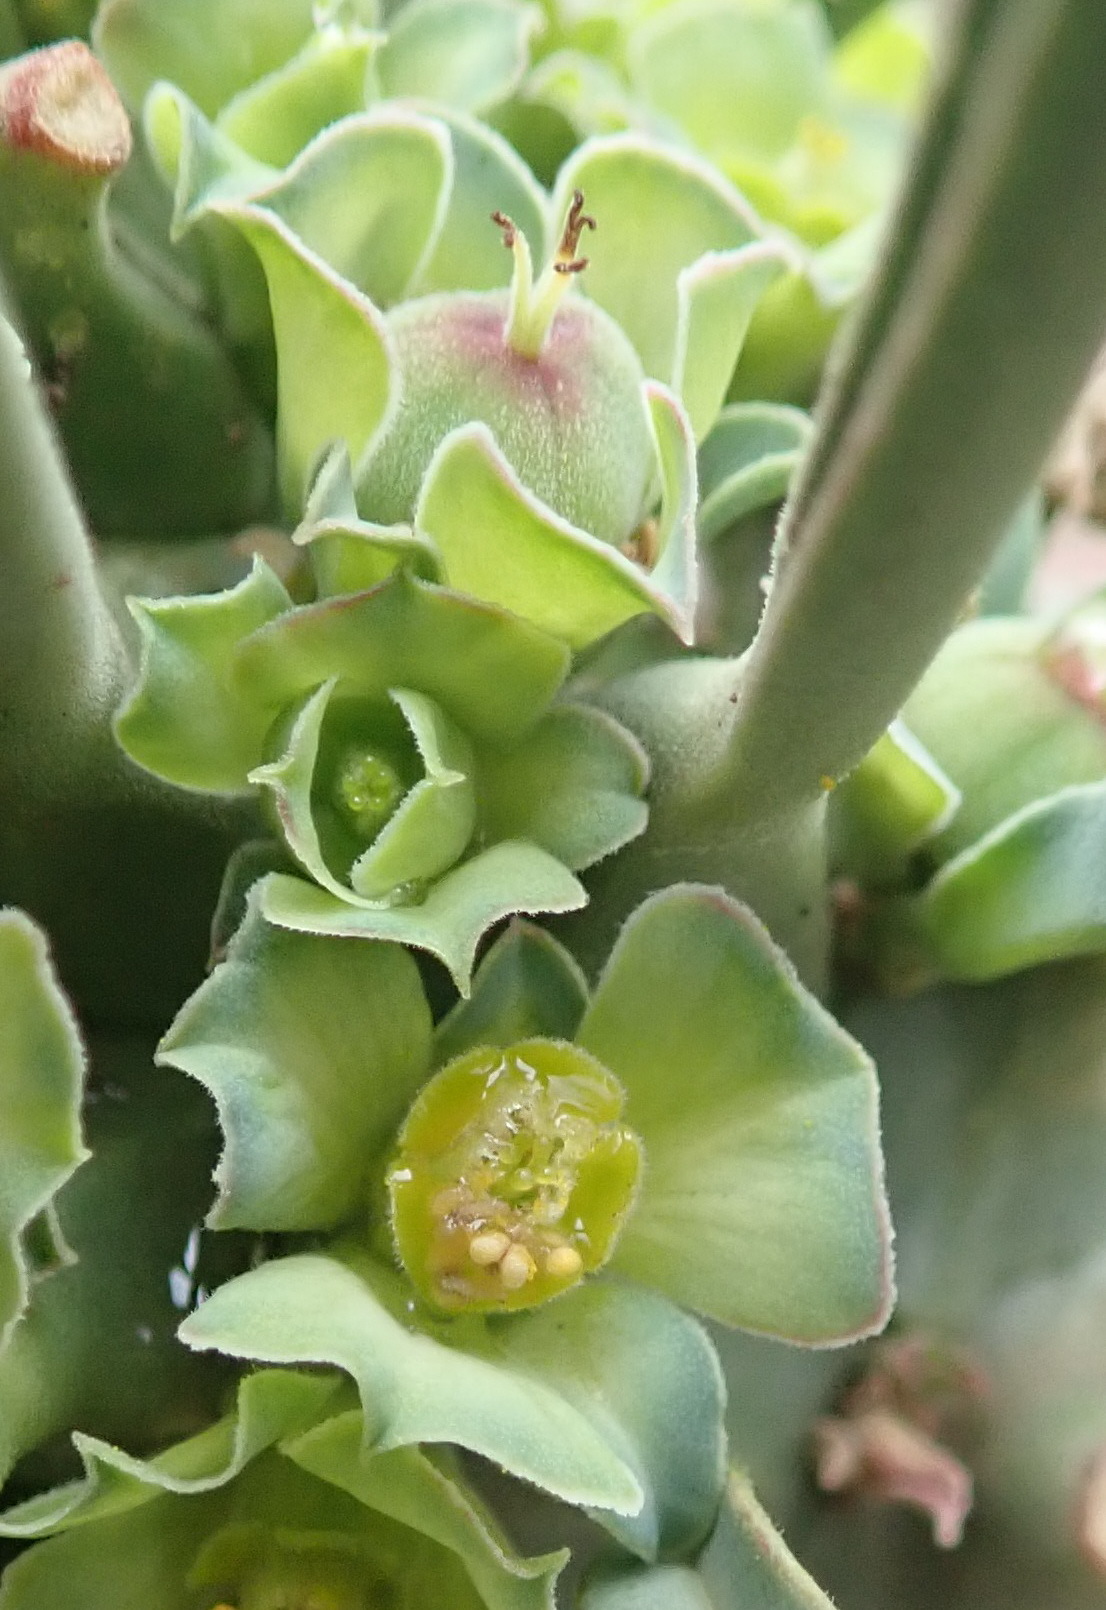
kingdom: Plantae
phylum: Tracheophyta
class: Magnoliopsida
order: Malpighiales
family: Euphorbiaceae
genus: Euphorbia
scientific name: Euphorbia clandestina
